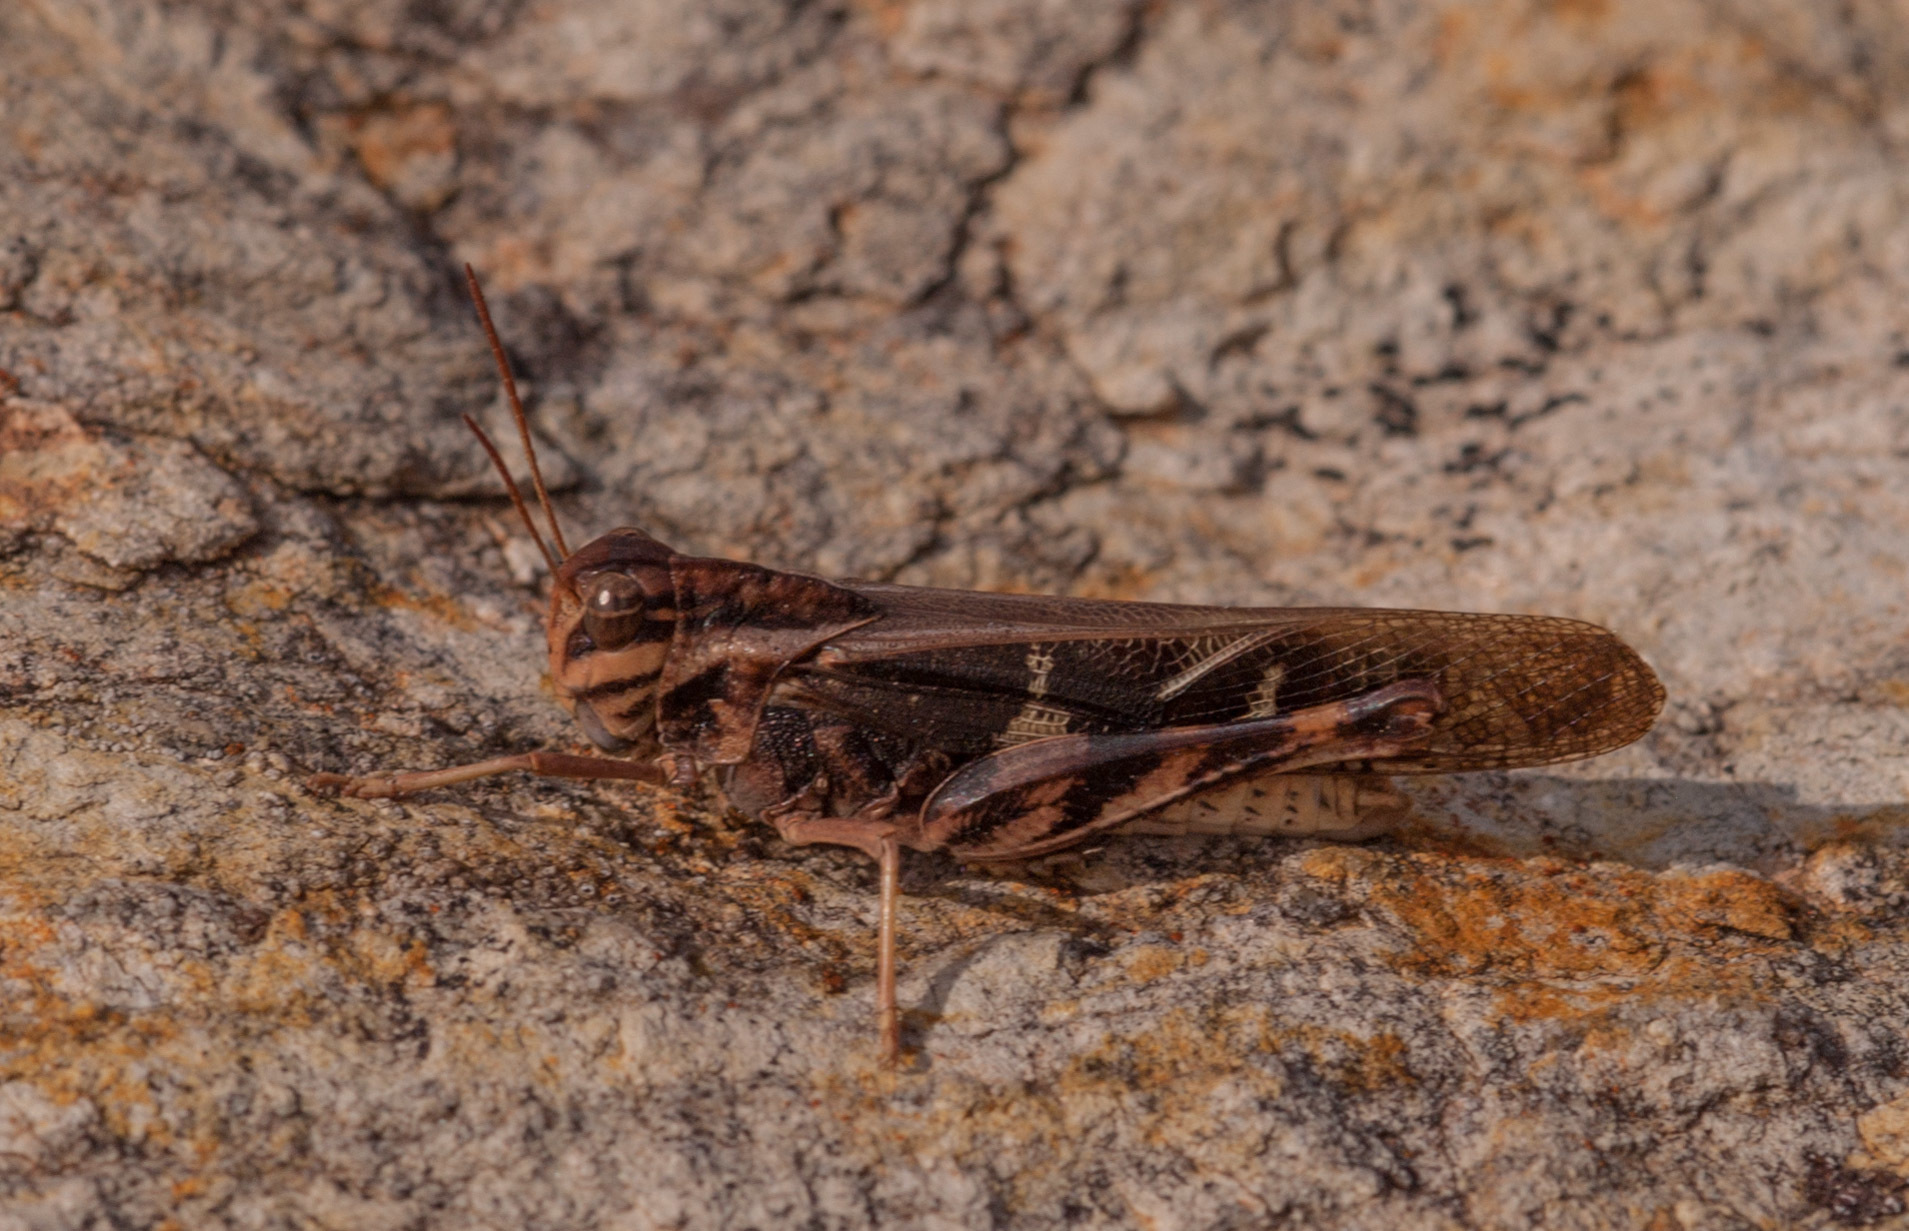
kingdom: Animalia
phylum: Arthropoda
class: Insecta
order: Orthoptera
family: Acrididae
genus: Gastrimargus
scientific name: Gastrimargus musicus
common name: Yellow-winged locust
